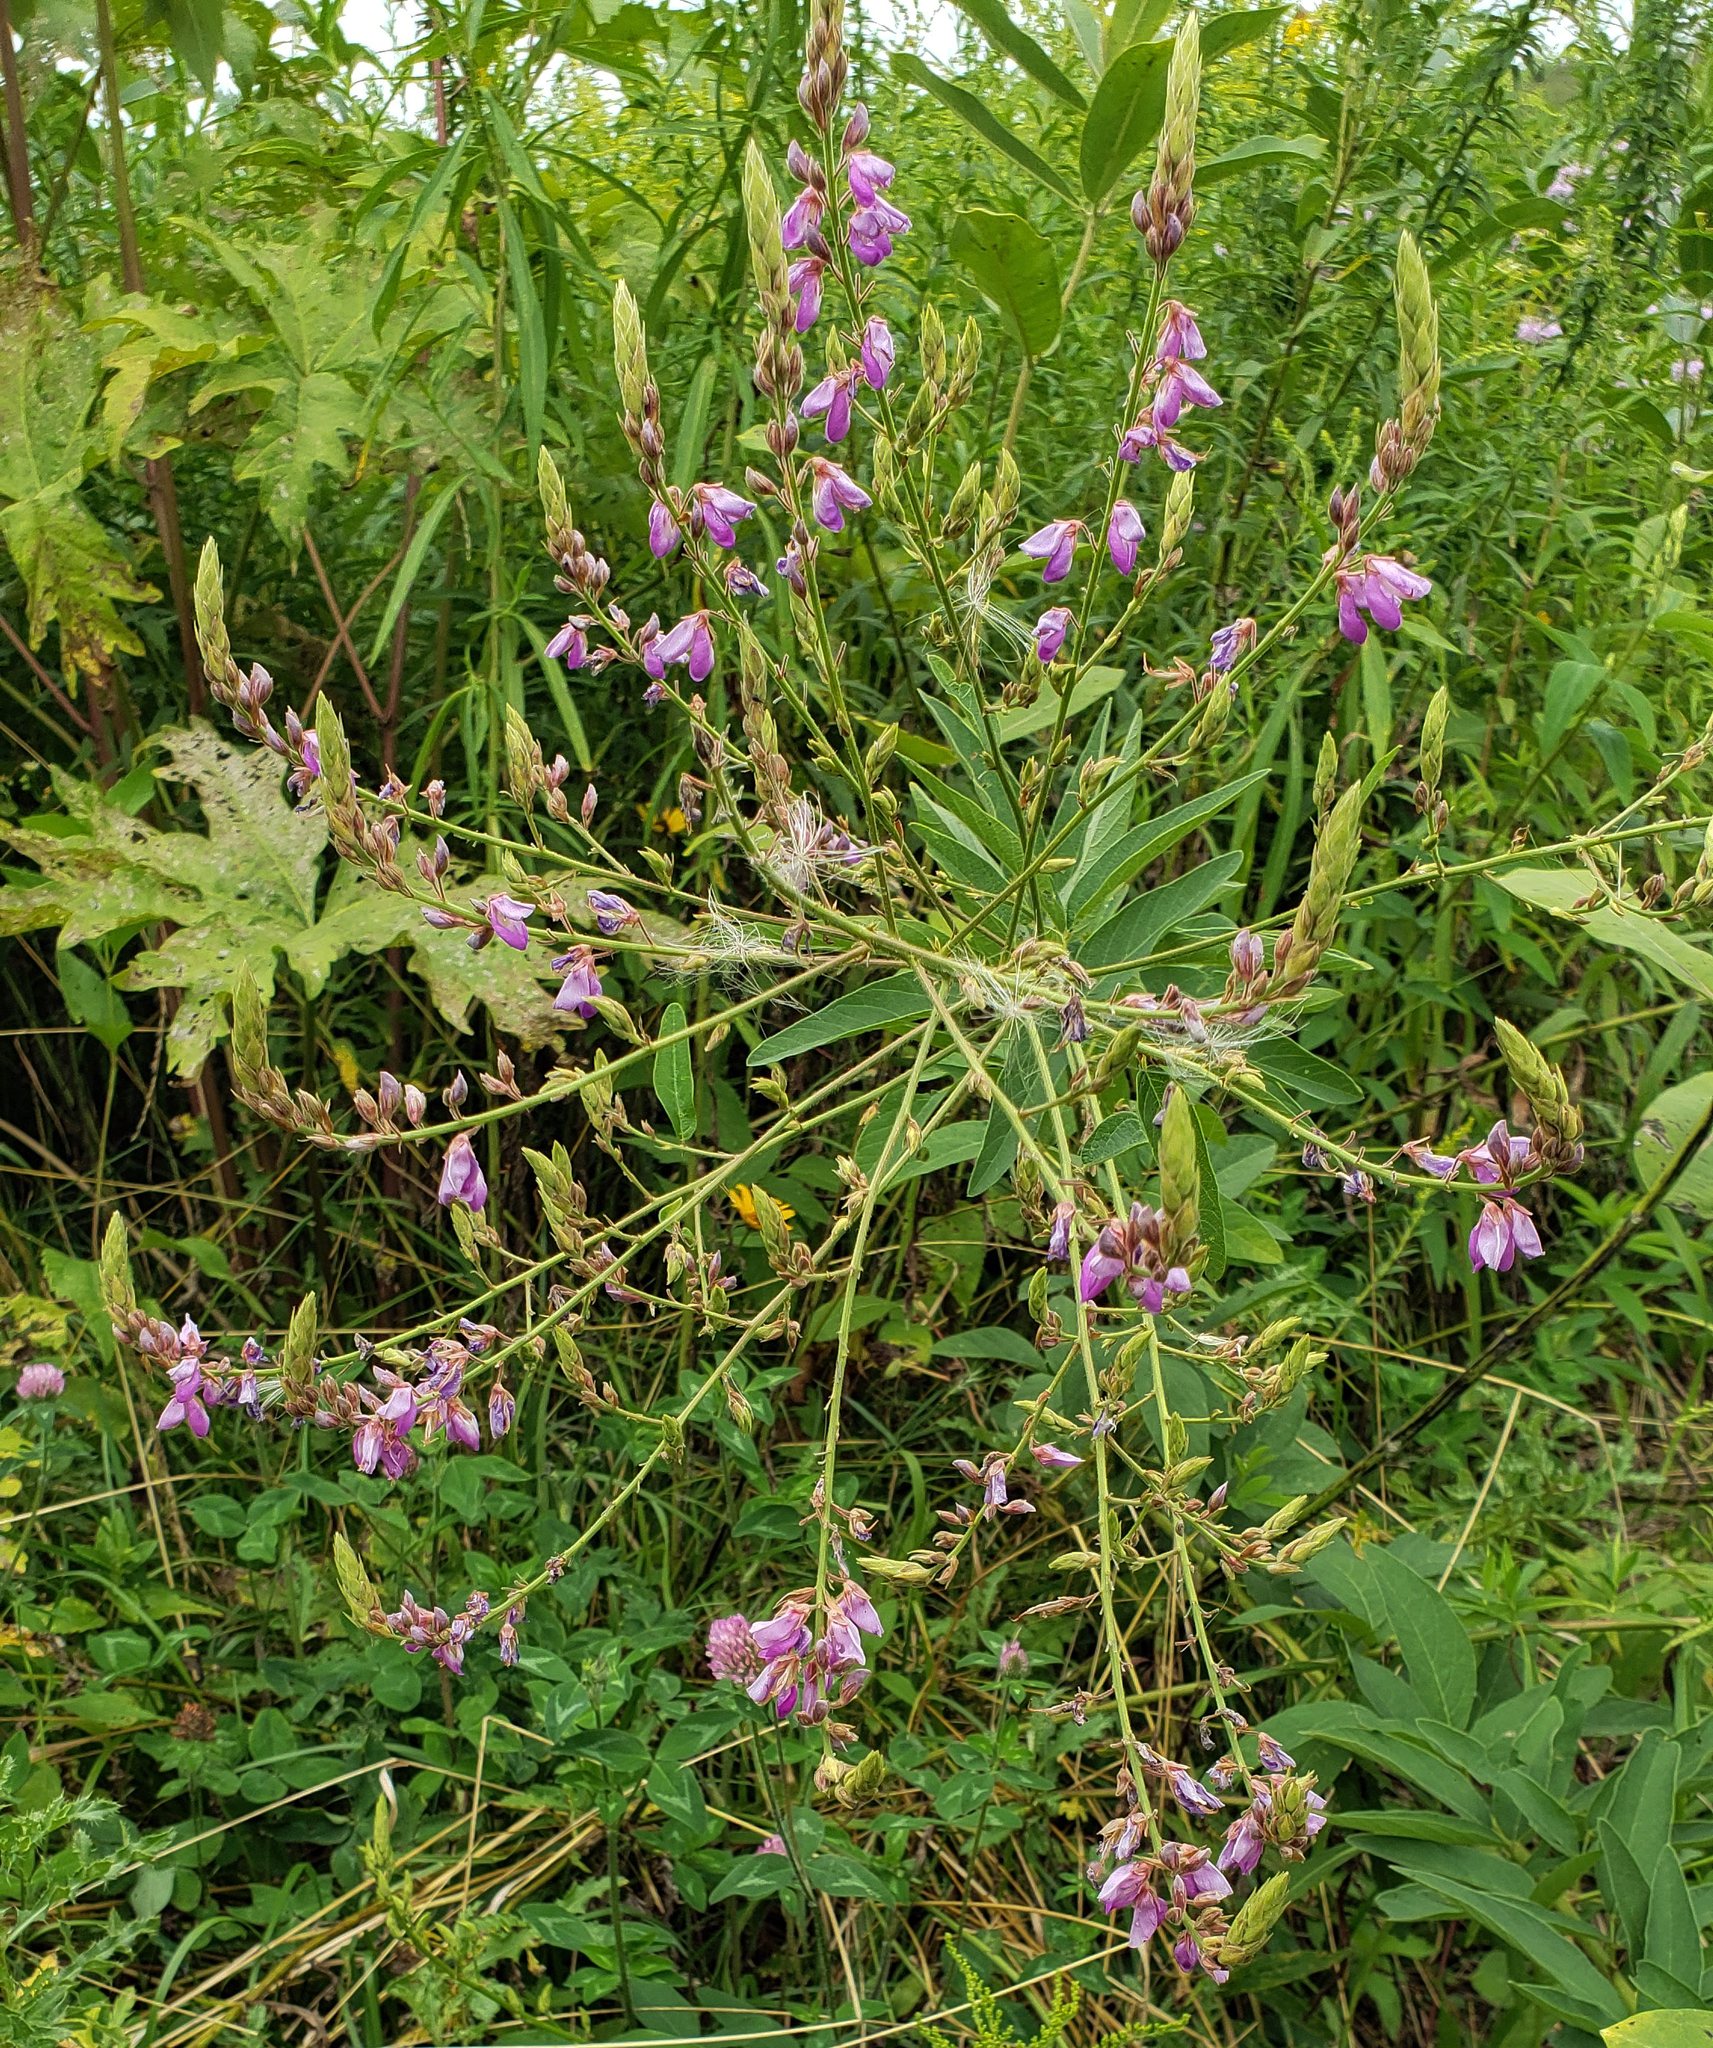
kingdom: Plantae
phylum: Tracheophyta
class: Magnoliopsida
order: Fabales
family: Fabaceae
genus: Desmodium
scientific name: Desmodium canadense
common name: Canada tick-trefoil
